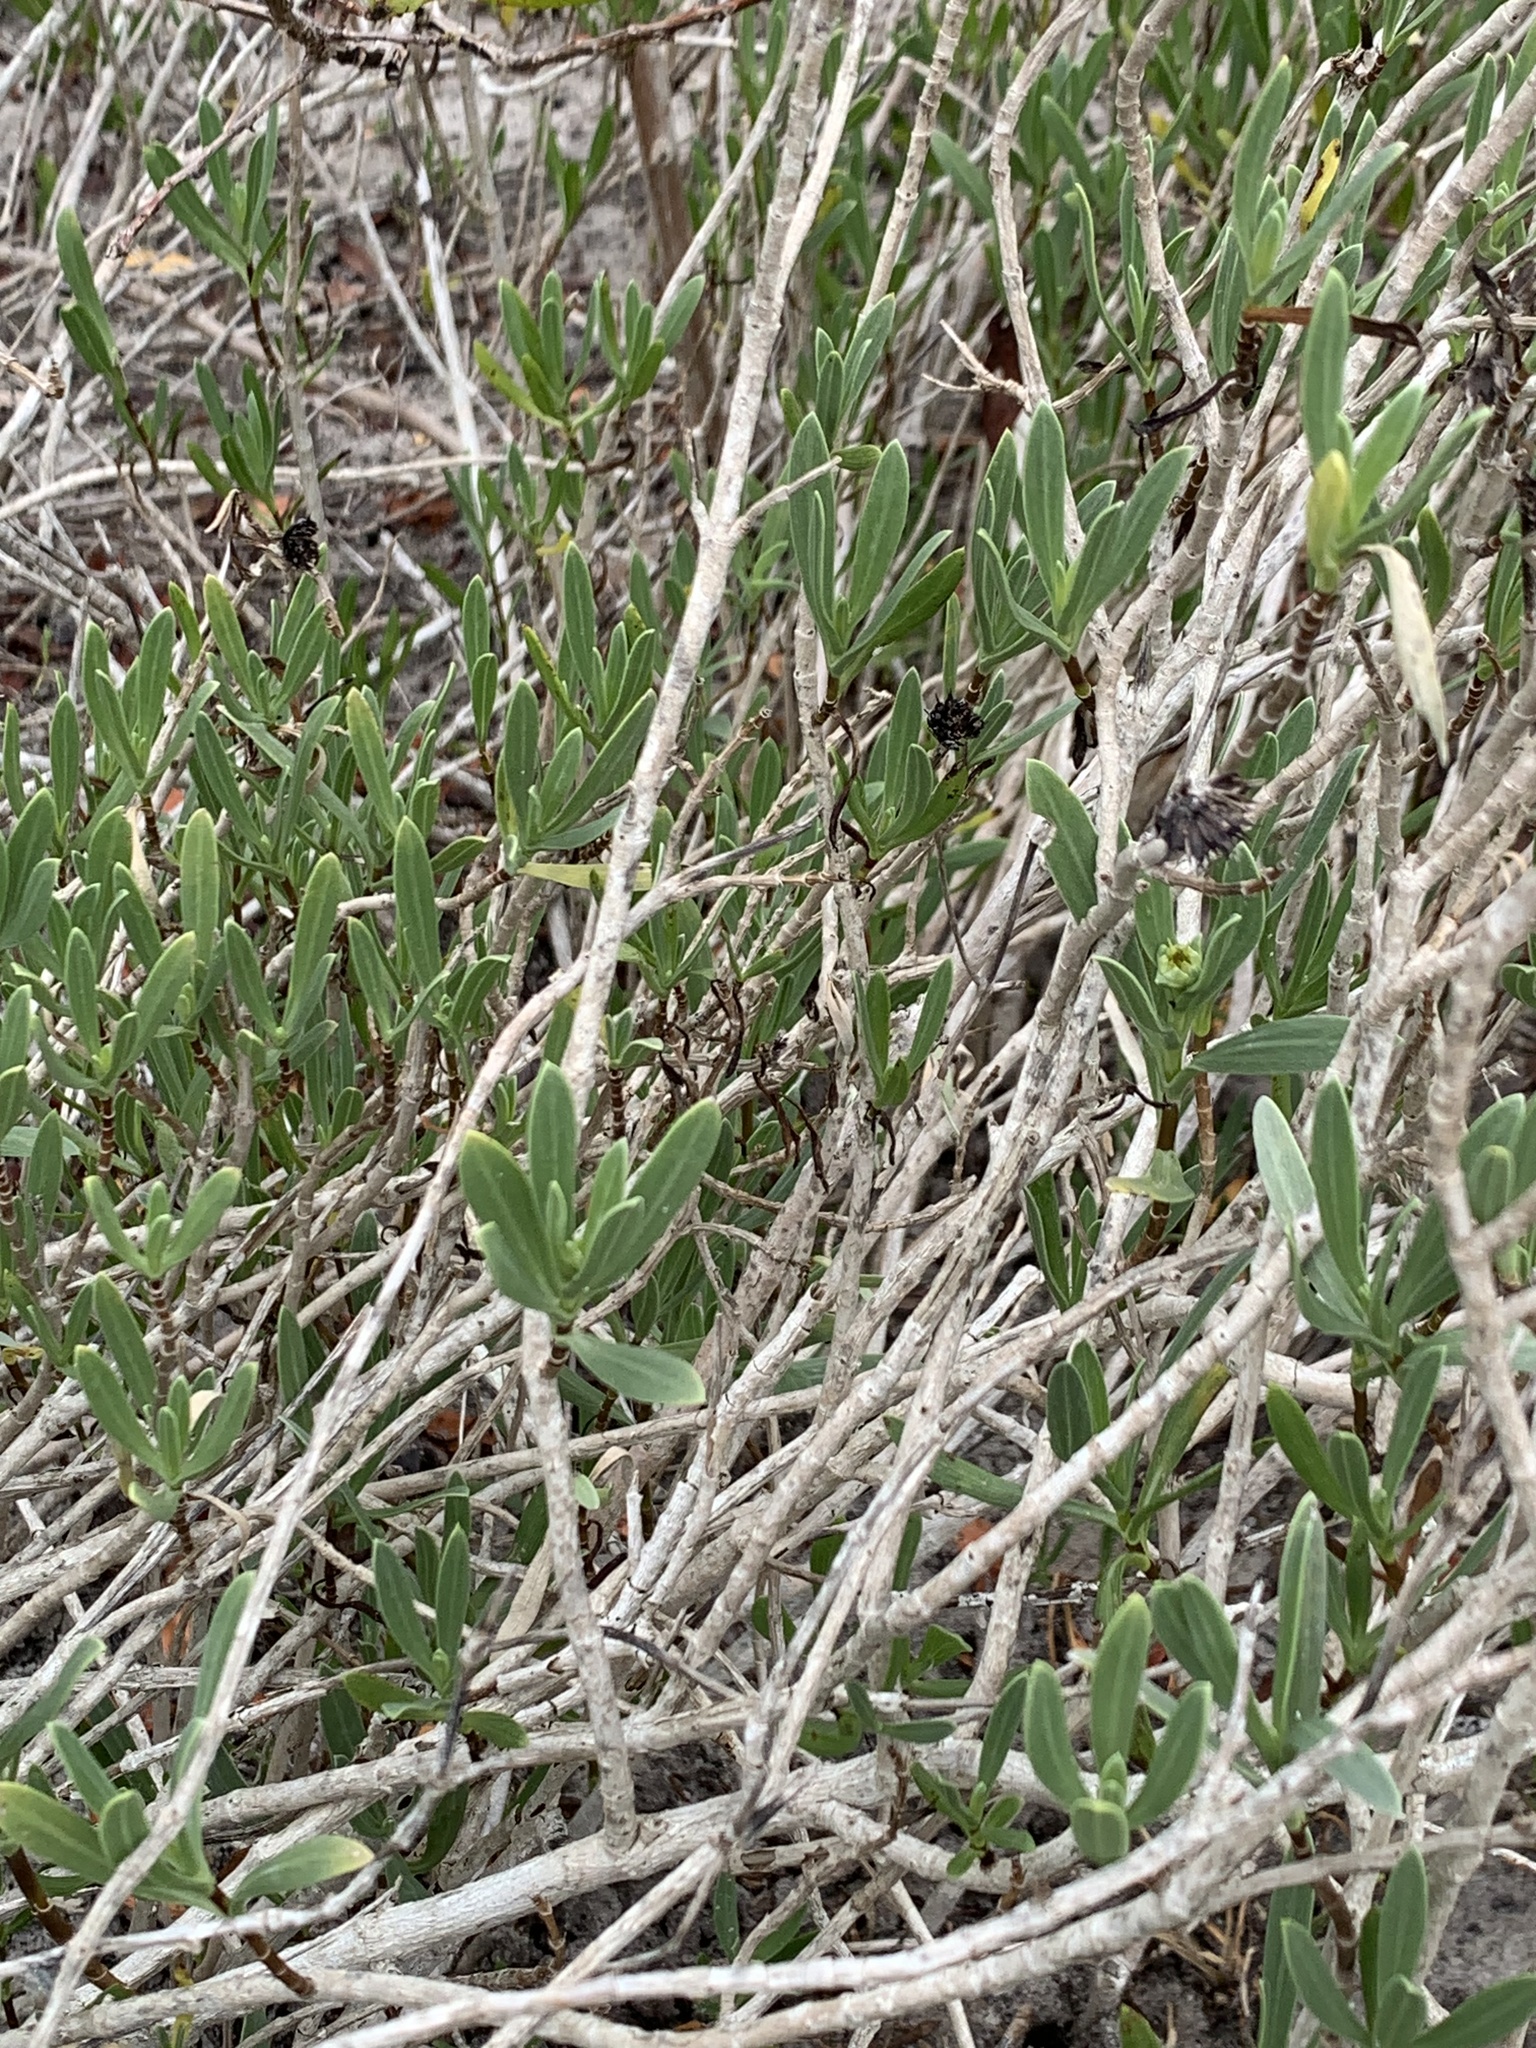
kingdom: Plantae
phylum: Tracheophyta
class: Magnoliopsida
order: Asterales
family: Asteraceae
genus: Borrichia
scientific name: Borrichia frutescens
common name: Sea oxeye
